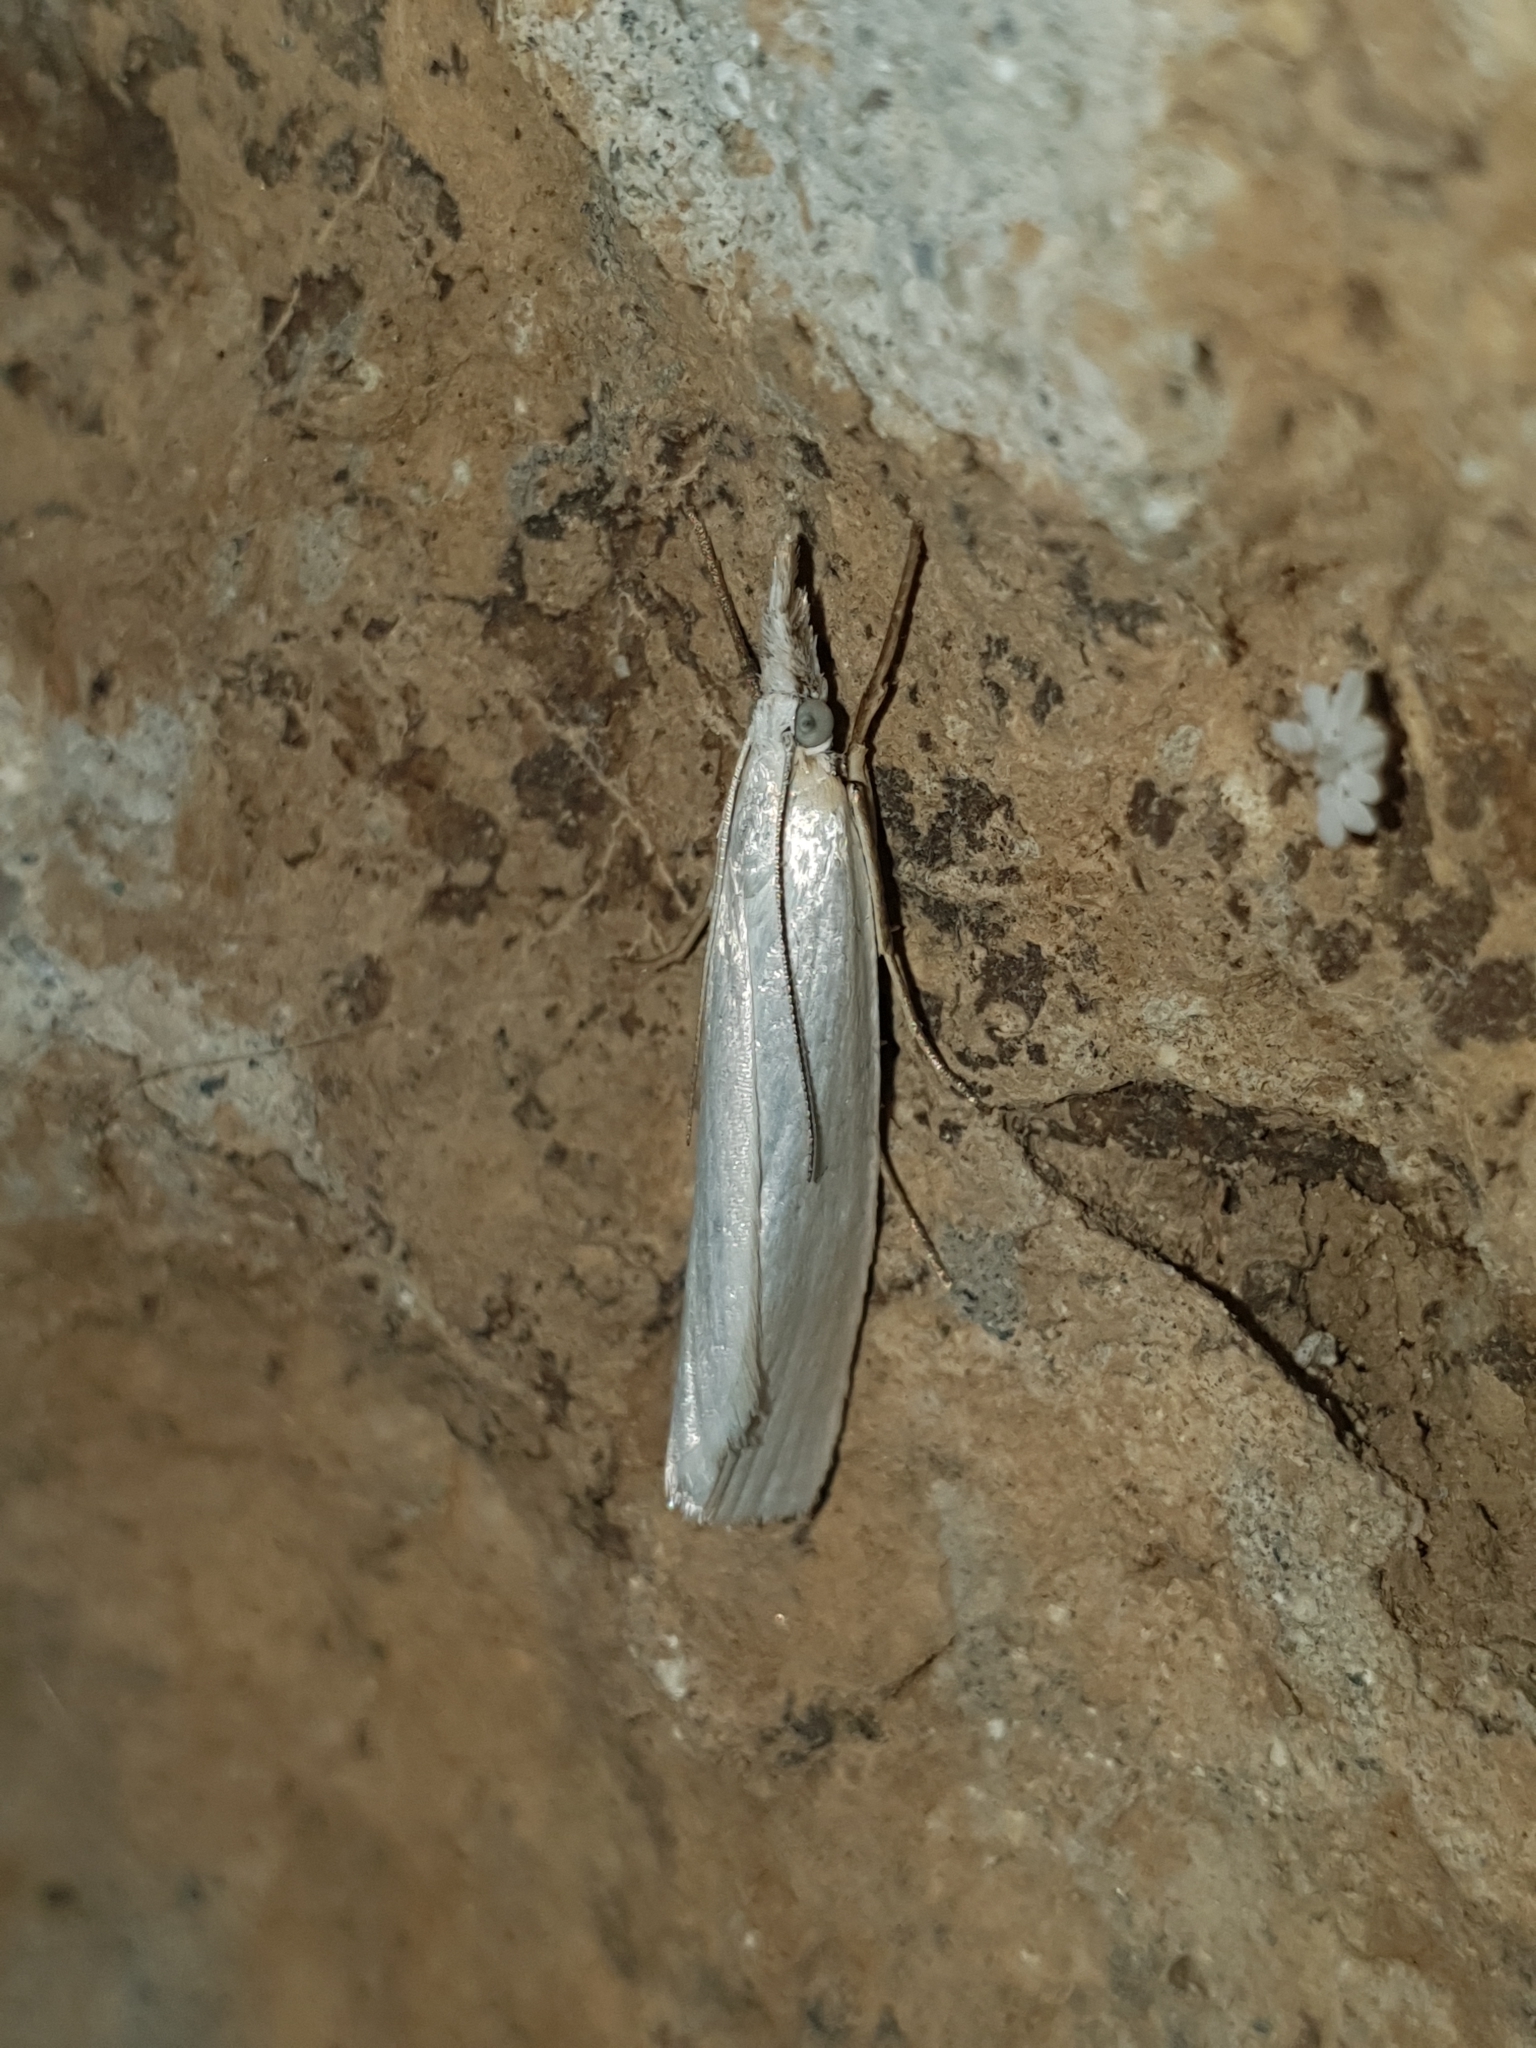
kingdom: Animalia
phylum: Arthropoda
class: Insecta
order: Lepidoptera
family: Crambidae
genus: Crambus
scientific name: Crambus perlellus
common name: Yellow satin veneer
